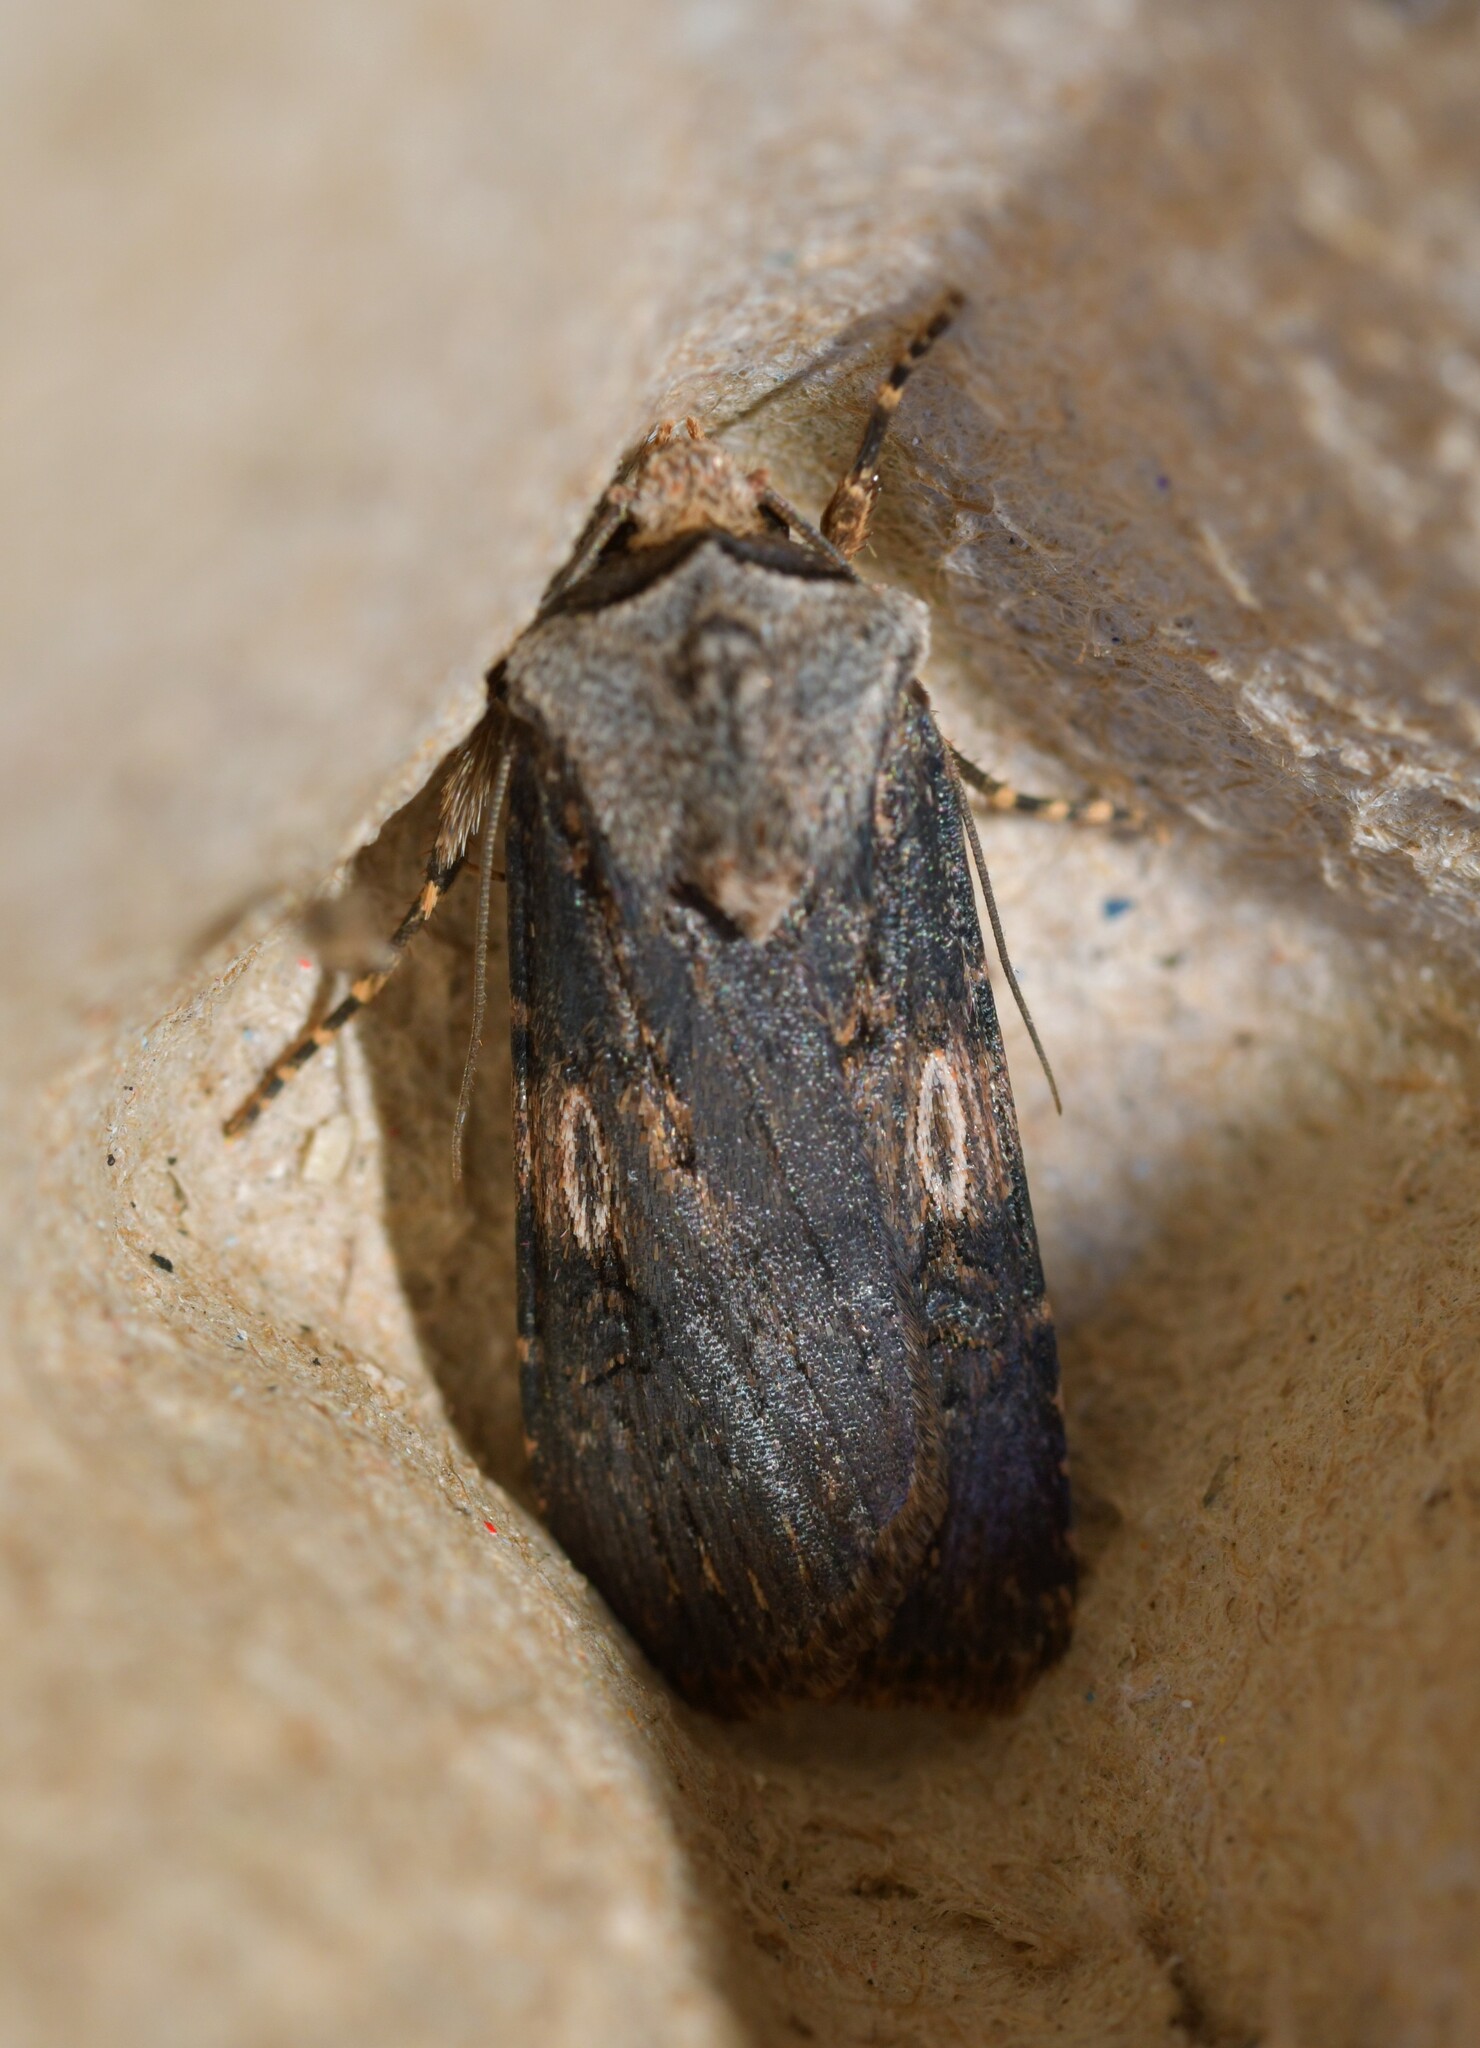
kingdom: Animalia
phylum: Arthropoda
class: Insecta
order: Lepidoptera
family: Noctuidae
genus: Agrotis
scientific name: Agrotis puta
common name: Shuttle-shaped dart
